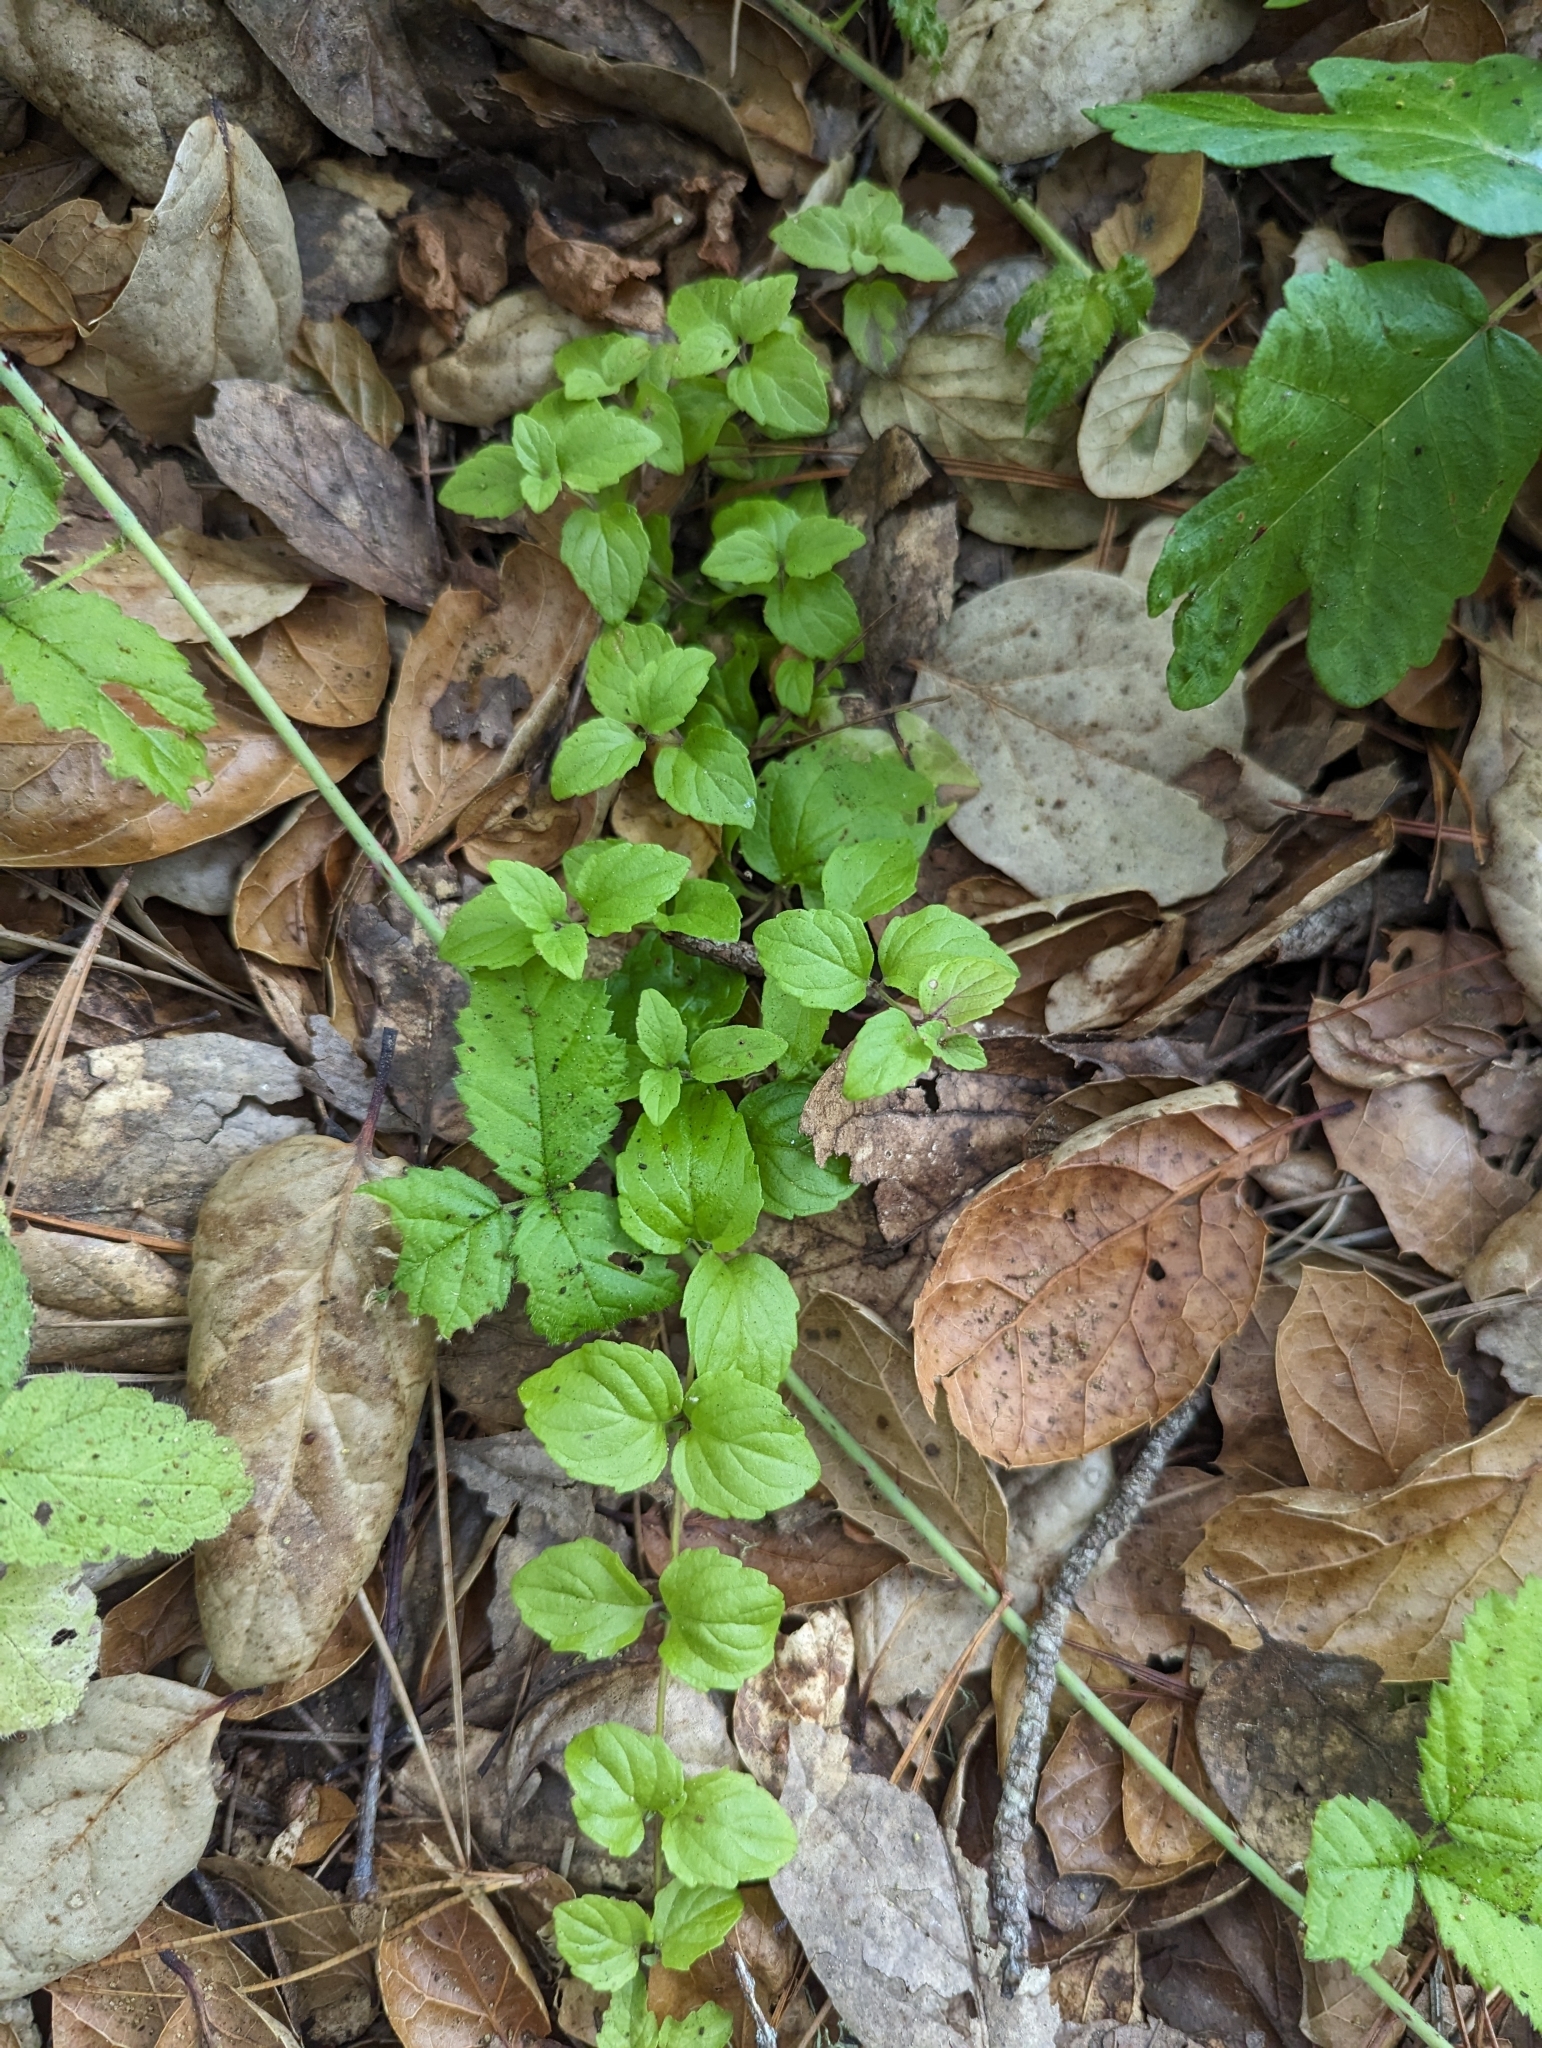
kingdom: Plantae
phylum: Tracheophyta
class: Magnoliopsida
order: Lamiales
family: Lamiaceae
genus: Micromeria
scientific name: Micromeria douglasii
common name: Yerba buena
